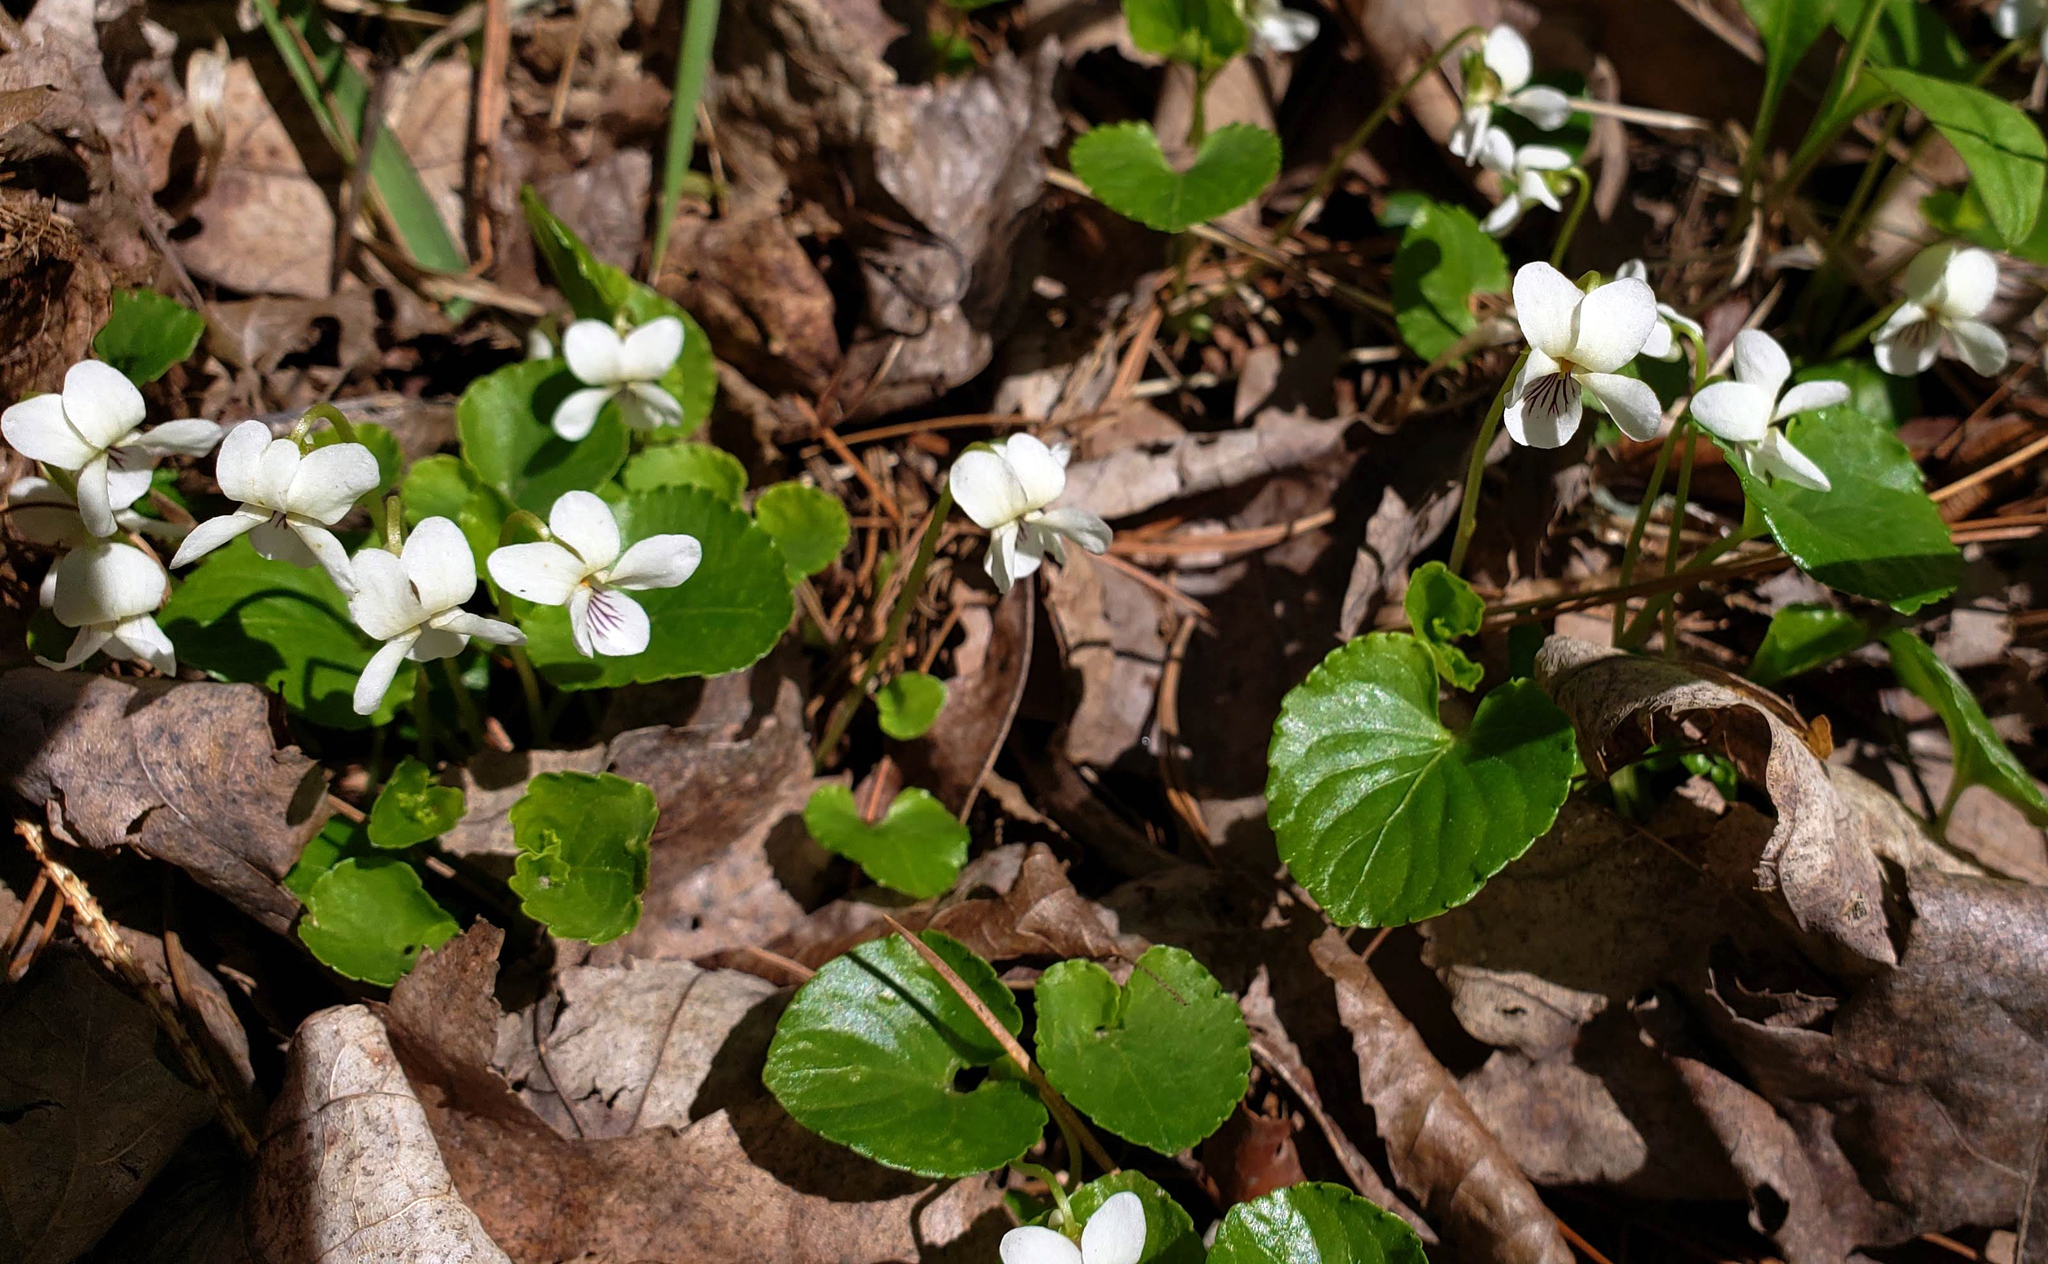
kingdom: Plantae
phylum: Tracheophyta
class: Magnoliopsida
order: Malpighiales
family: Violaceae
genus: Viola
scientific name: Viola minuscula
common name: Northern white violet
